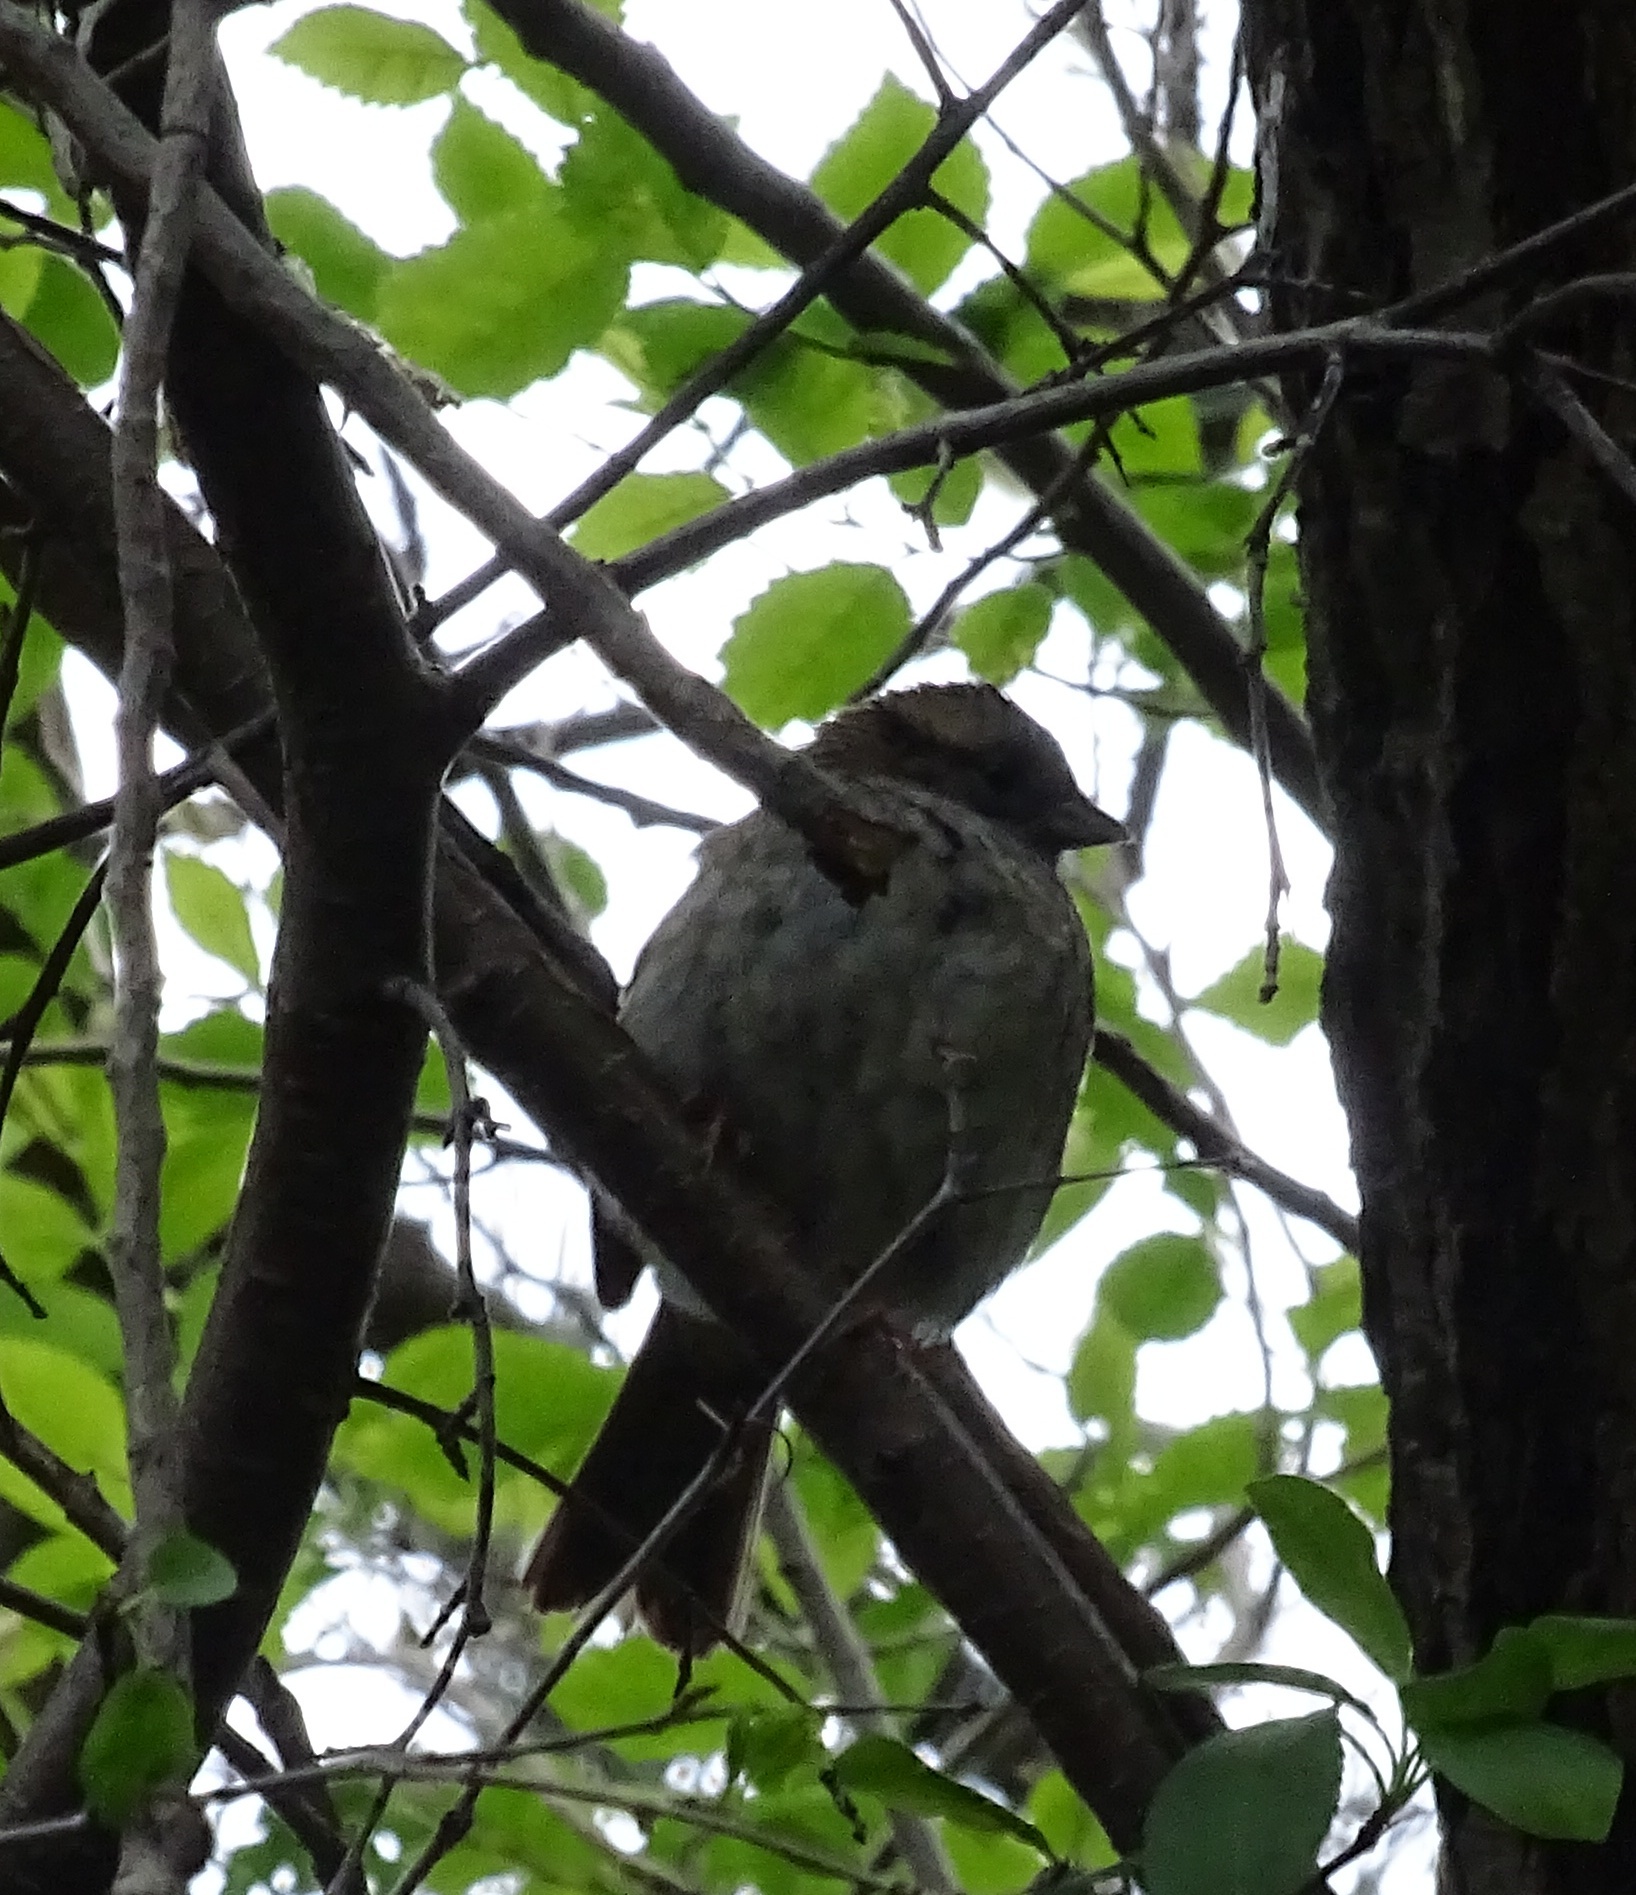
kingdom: Animalia
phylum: Chordata
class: Aves
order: Passeriformes
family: Passerellidae
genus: Zonotrichia
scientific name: Zonotrichia albicollis
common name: White-throated sparrow
